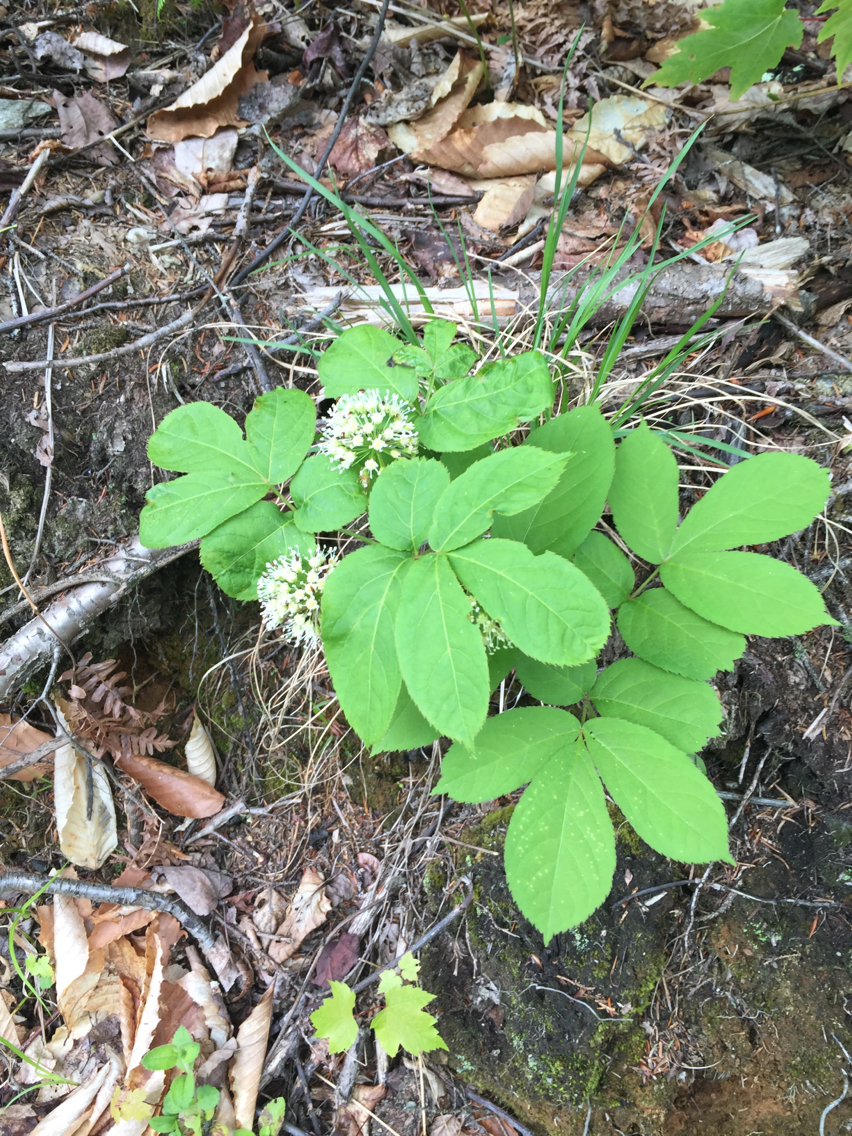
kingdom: Plantae
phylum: Tracheophyta
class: Magnoliopsida
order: Apiales
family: Araliaceae
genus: Aralia
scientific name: Aralia nudicaulis
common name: Wild sarsaparilla
